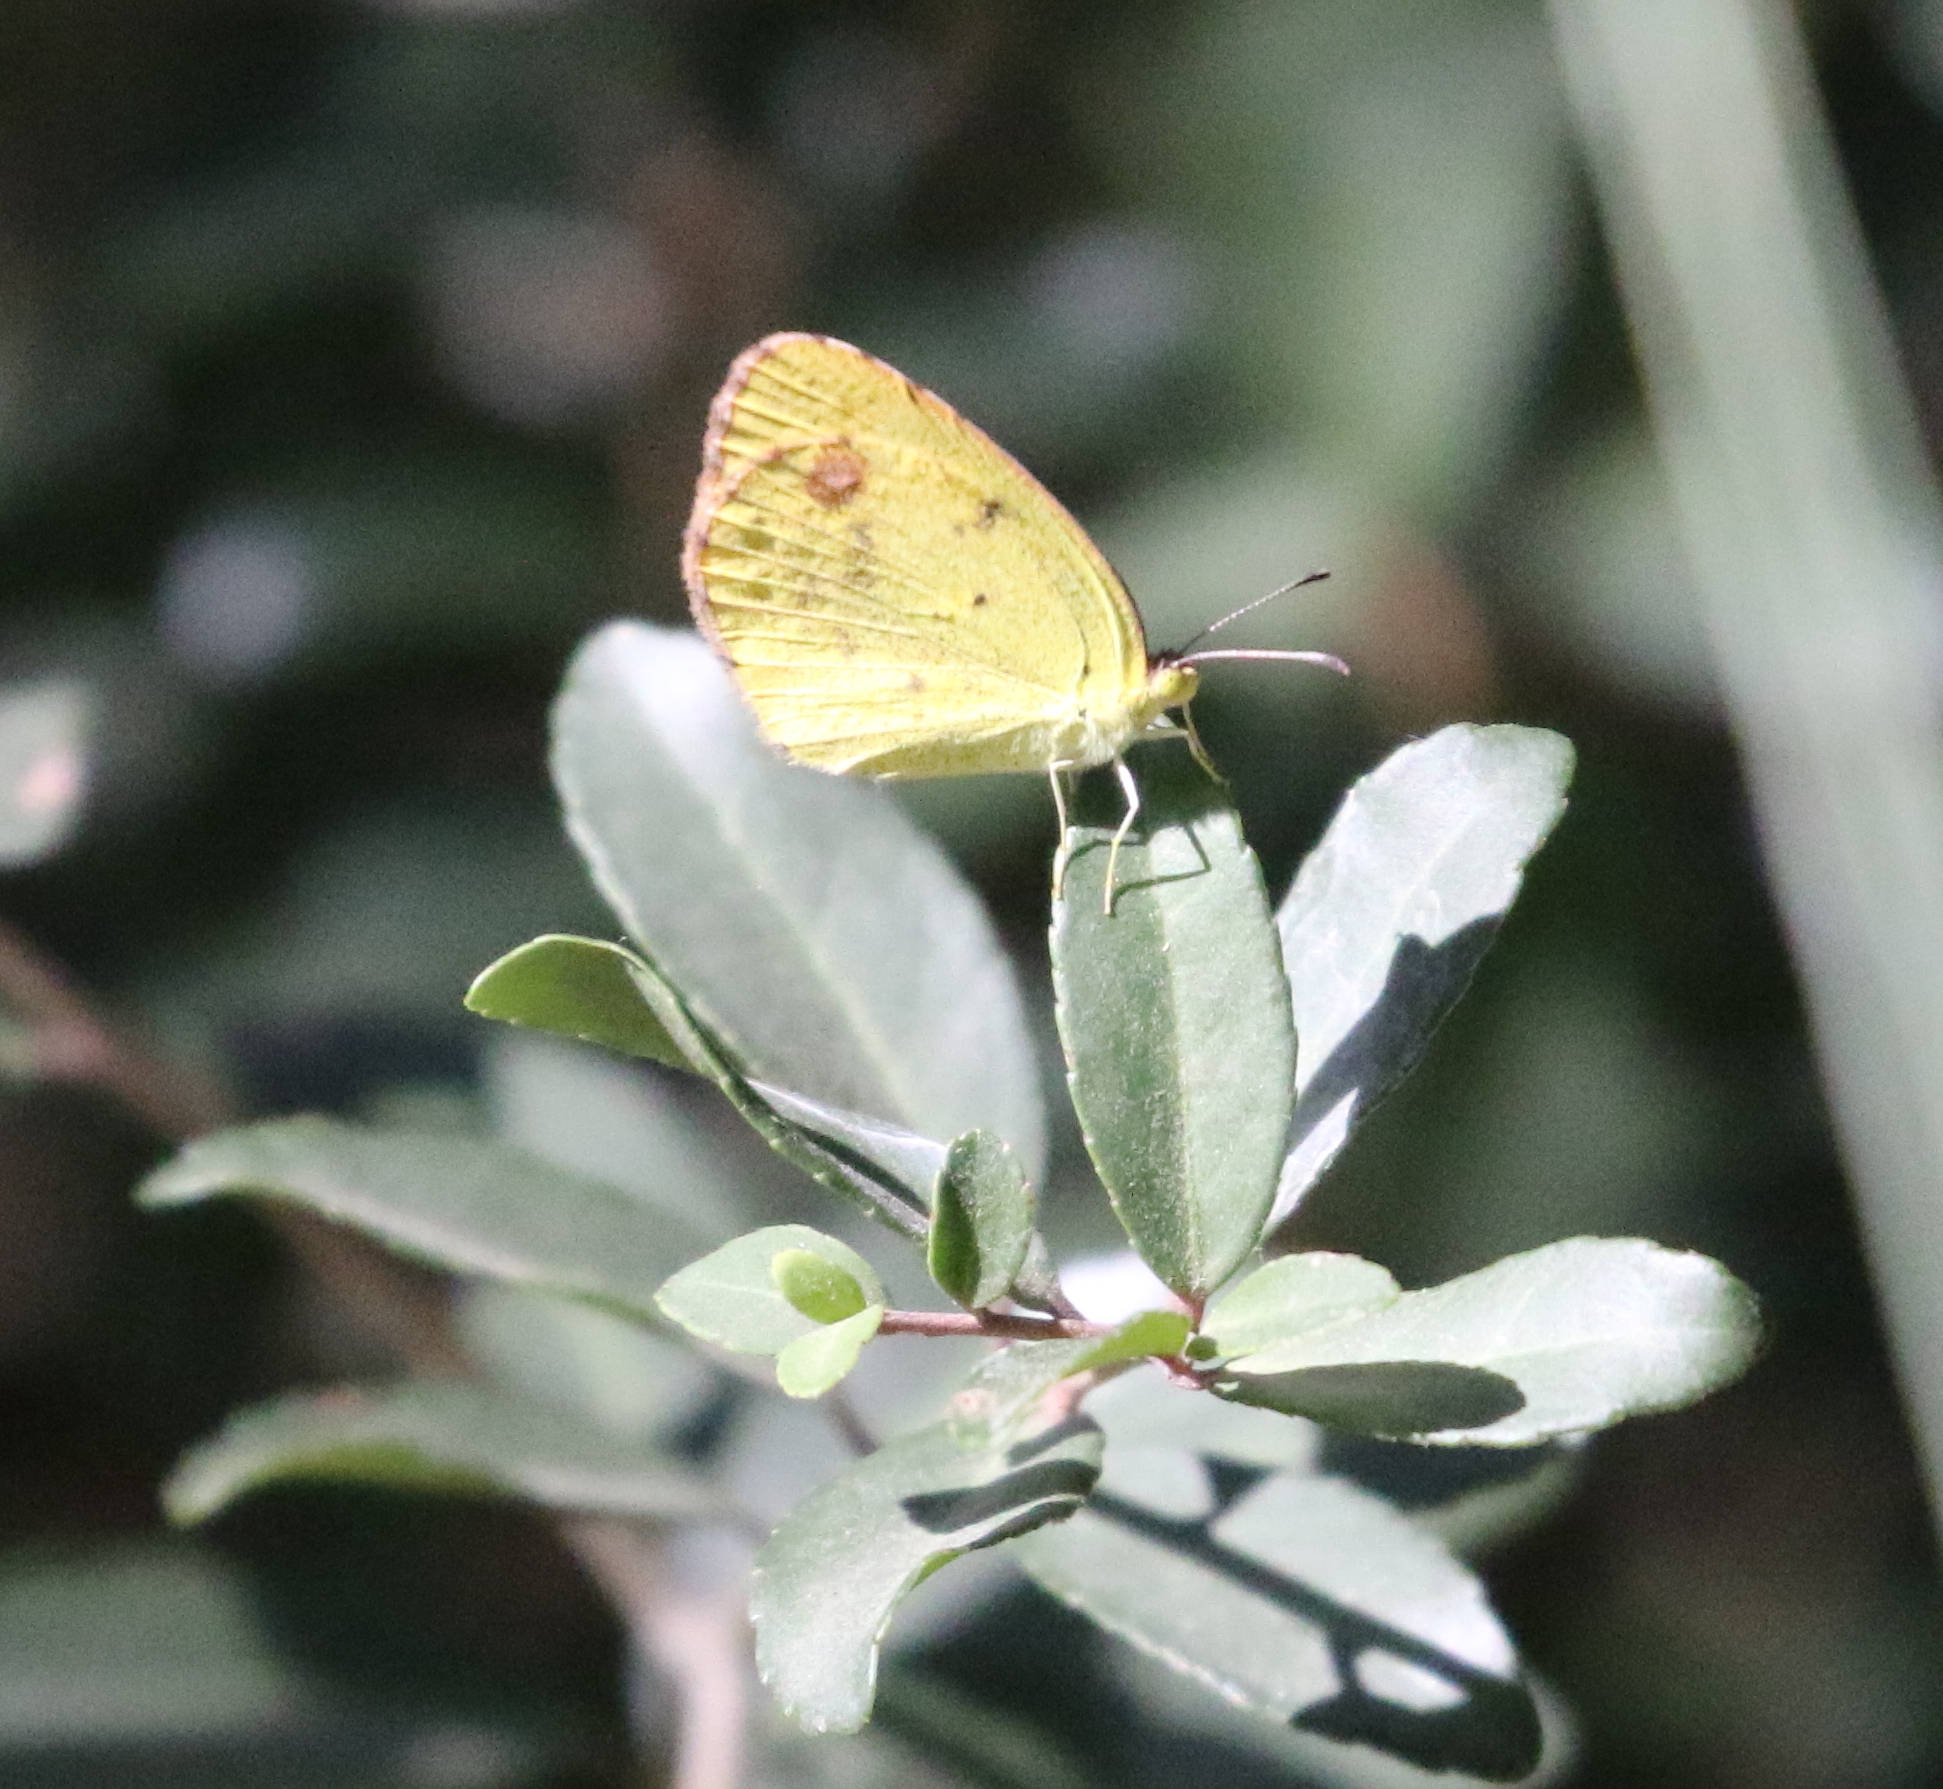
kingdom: Animalia
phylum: Arthropoda
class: Insecta
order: Lepidoptera
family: Pieridae
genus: Pyrisitia
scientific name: Pyrisitia lisa
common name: Little yellow
